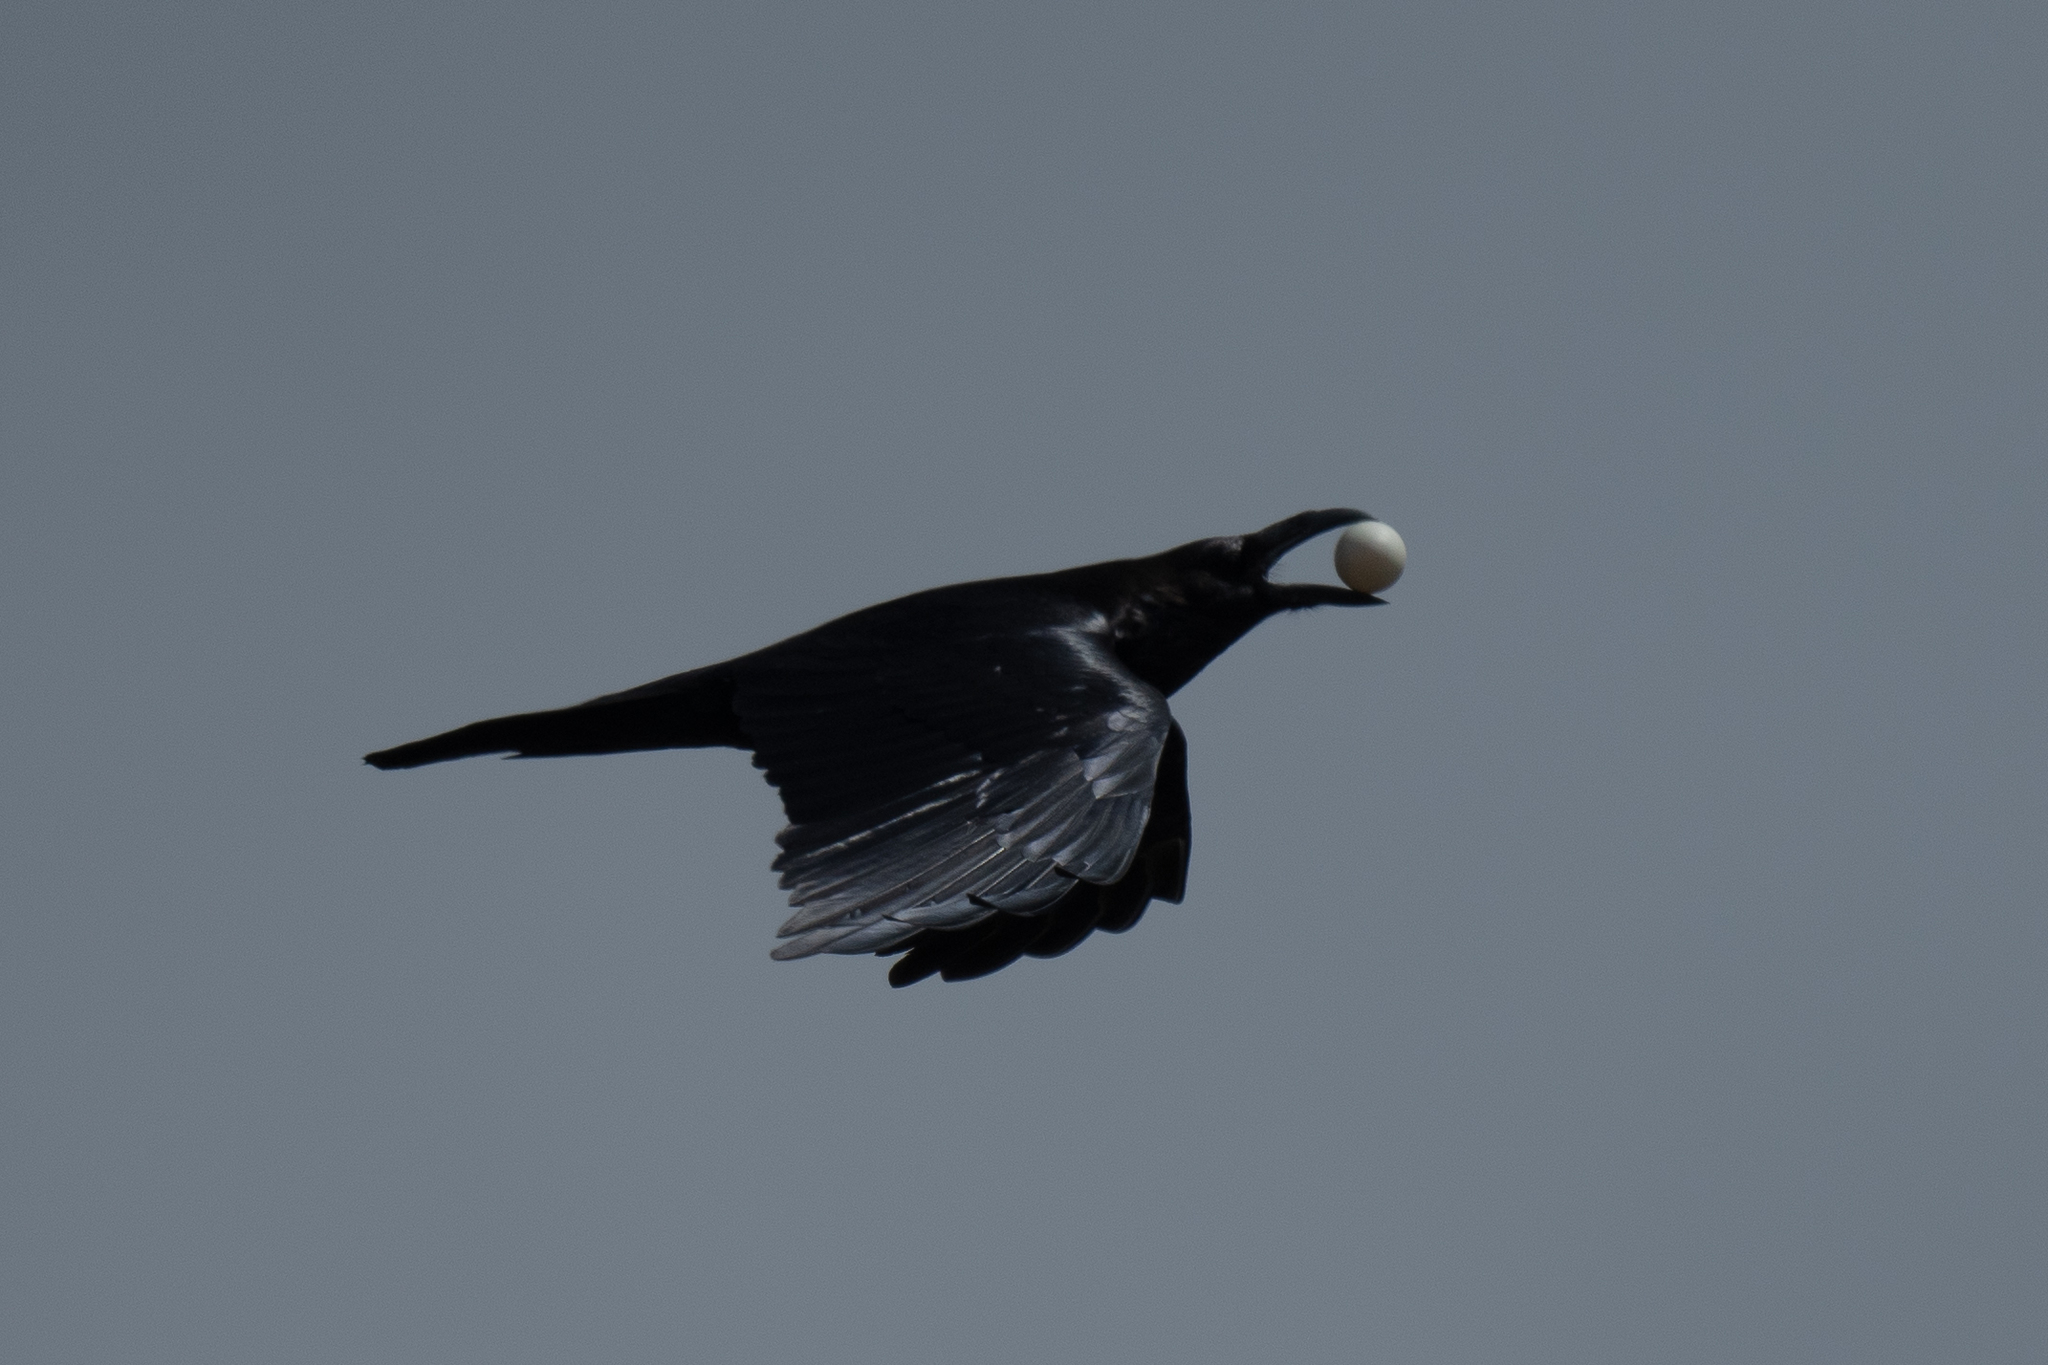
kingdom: Animalia
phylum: Chordata
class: Aves
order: Passeriformes
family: Corvidae
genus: Corvus
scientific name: Corvus corax
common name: Common raven
